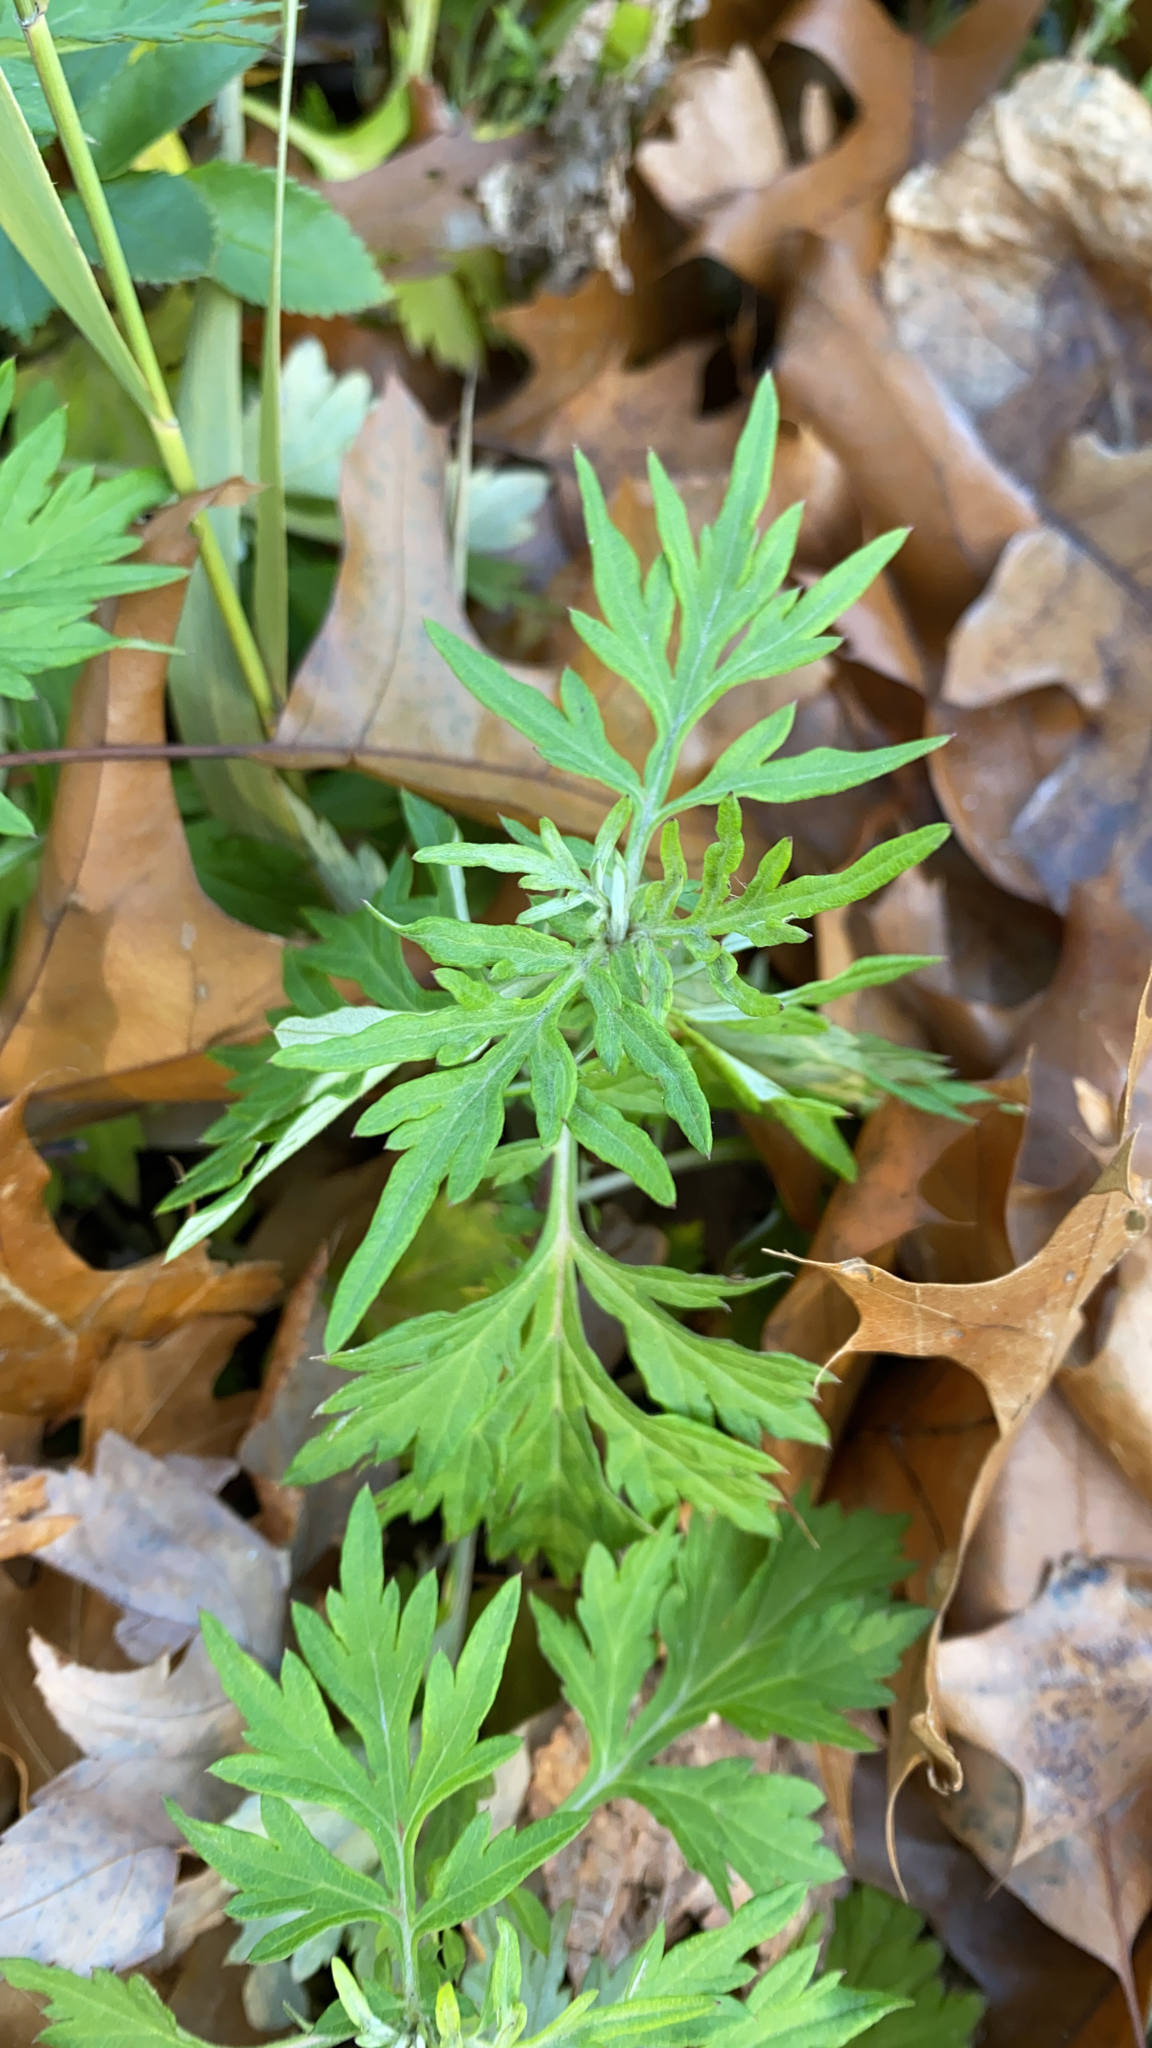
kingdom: Plantae
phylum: Tracheophyta
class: Magnoliopsida
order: Asterales
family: Asteraceae
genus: Artemisia
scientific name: Artemisia vulgaris
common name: Mugwort
